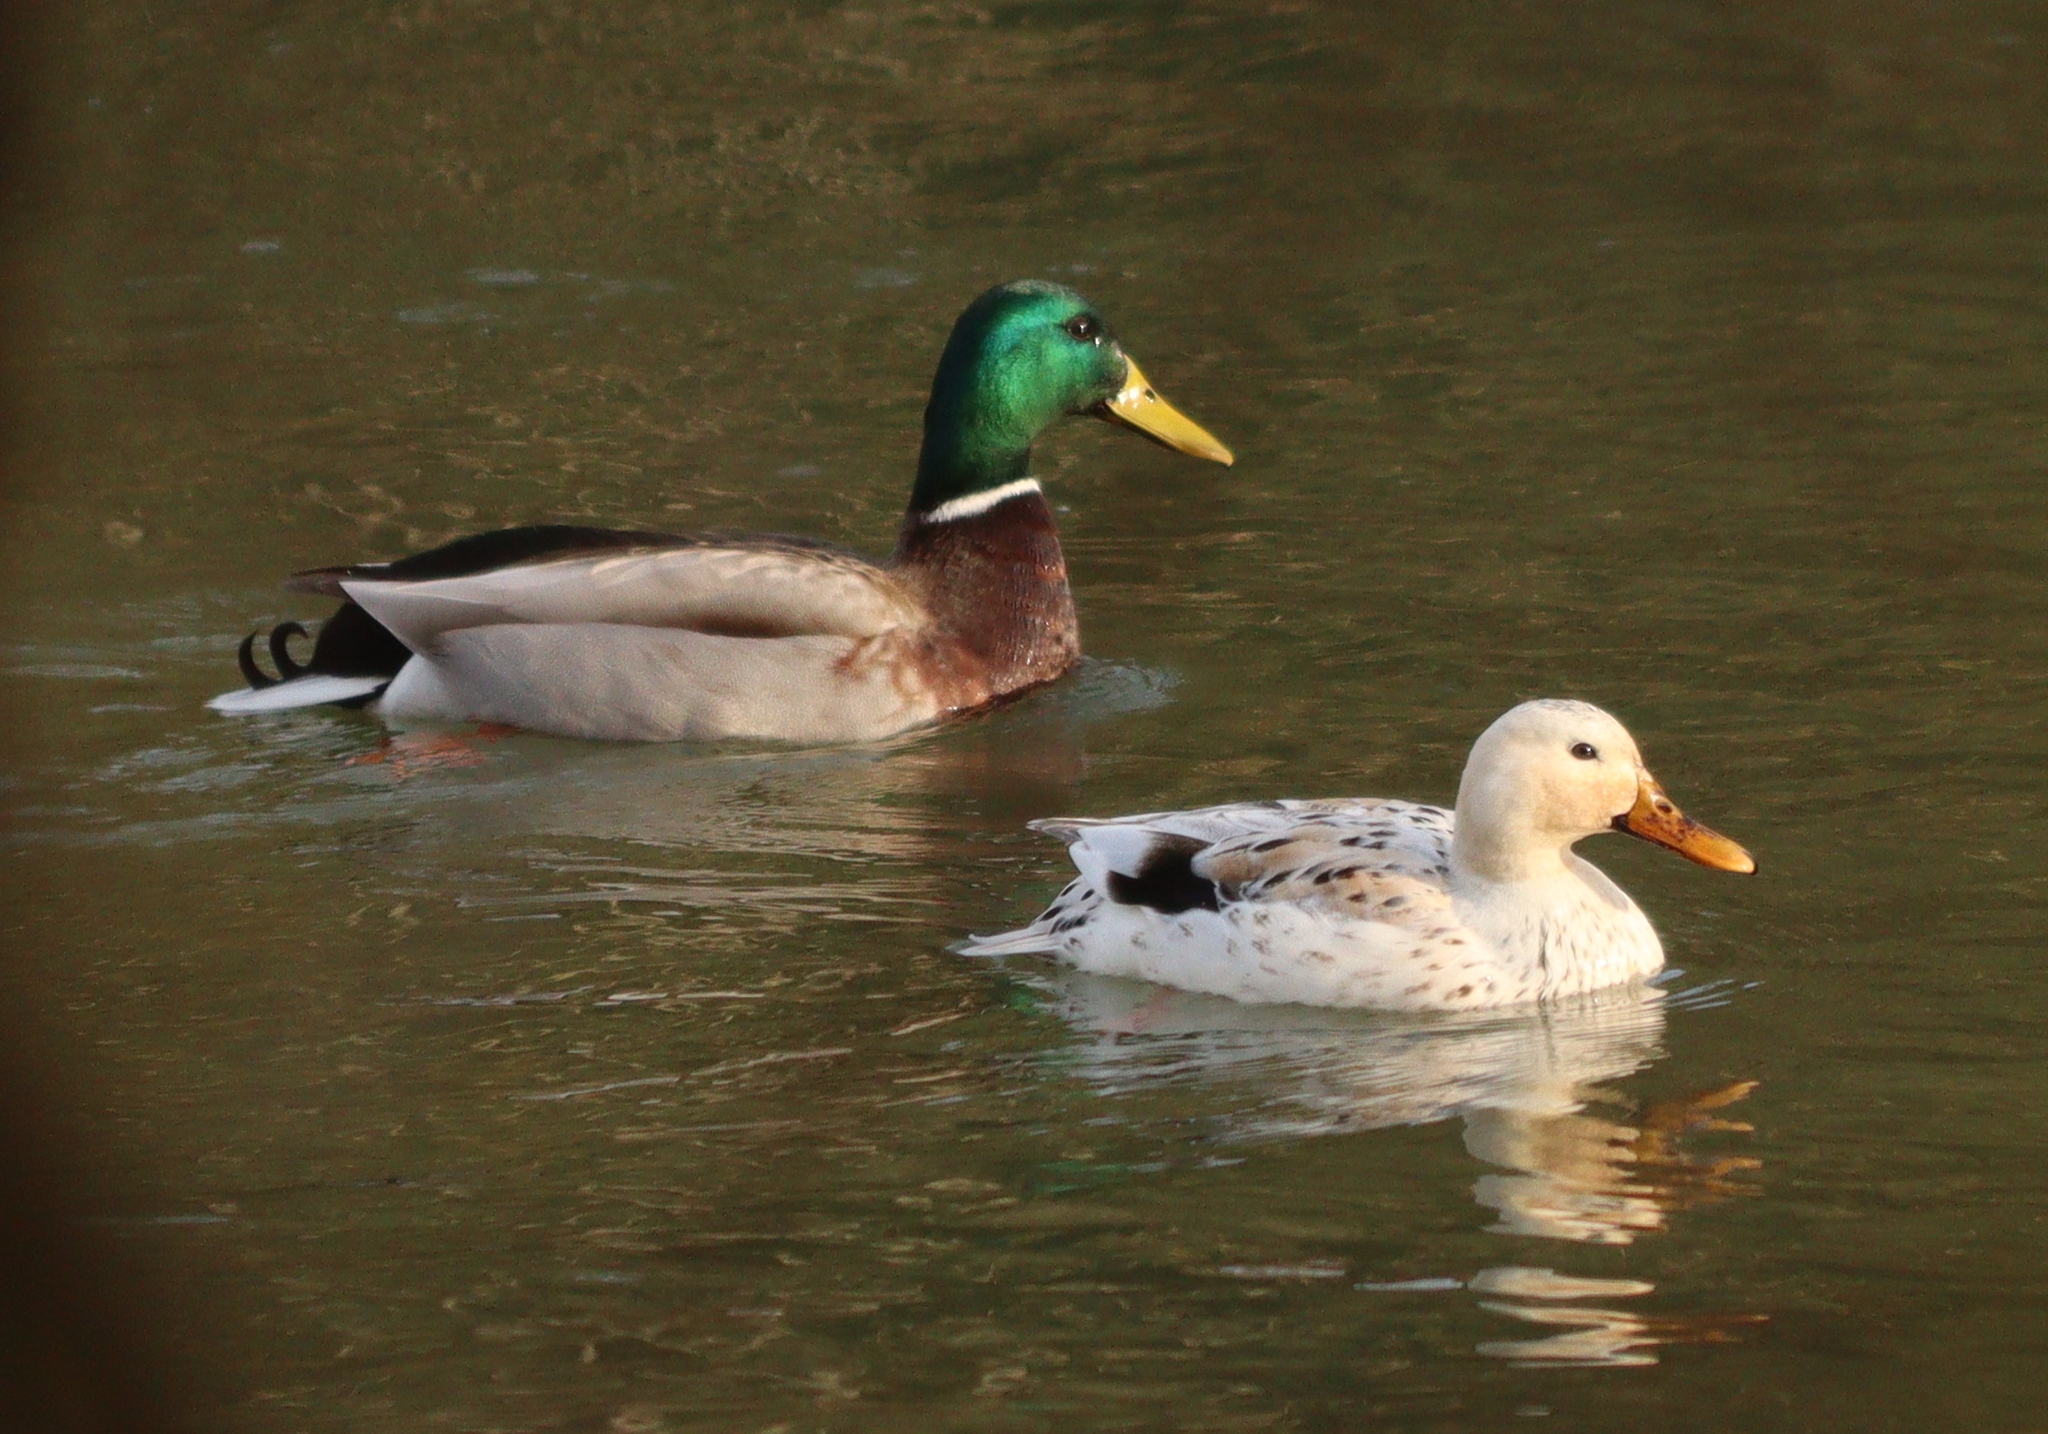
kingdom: Animalia
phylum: Chordata
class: Aves
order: Anseriformes
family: Anatidae
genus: Anas
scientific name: Anas platyrhynchos
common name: Mallard
